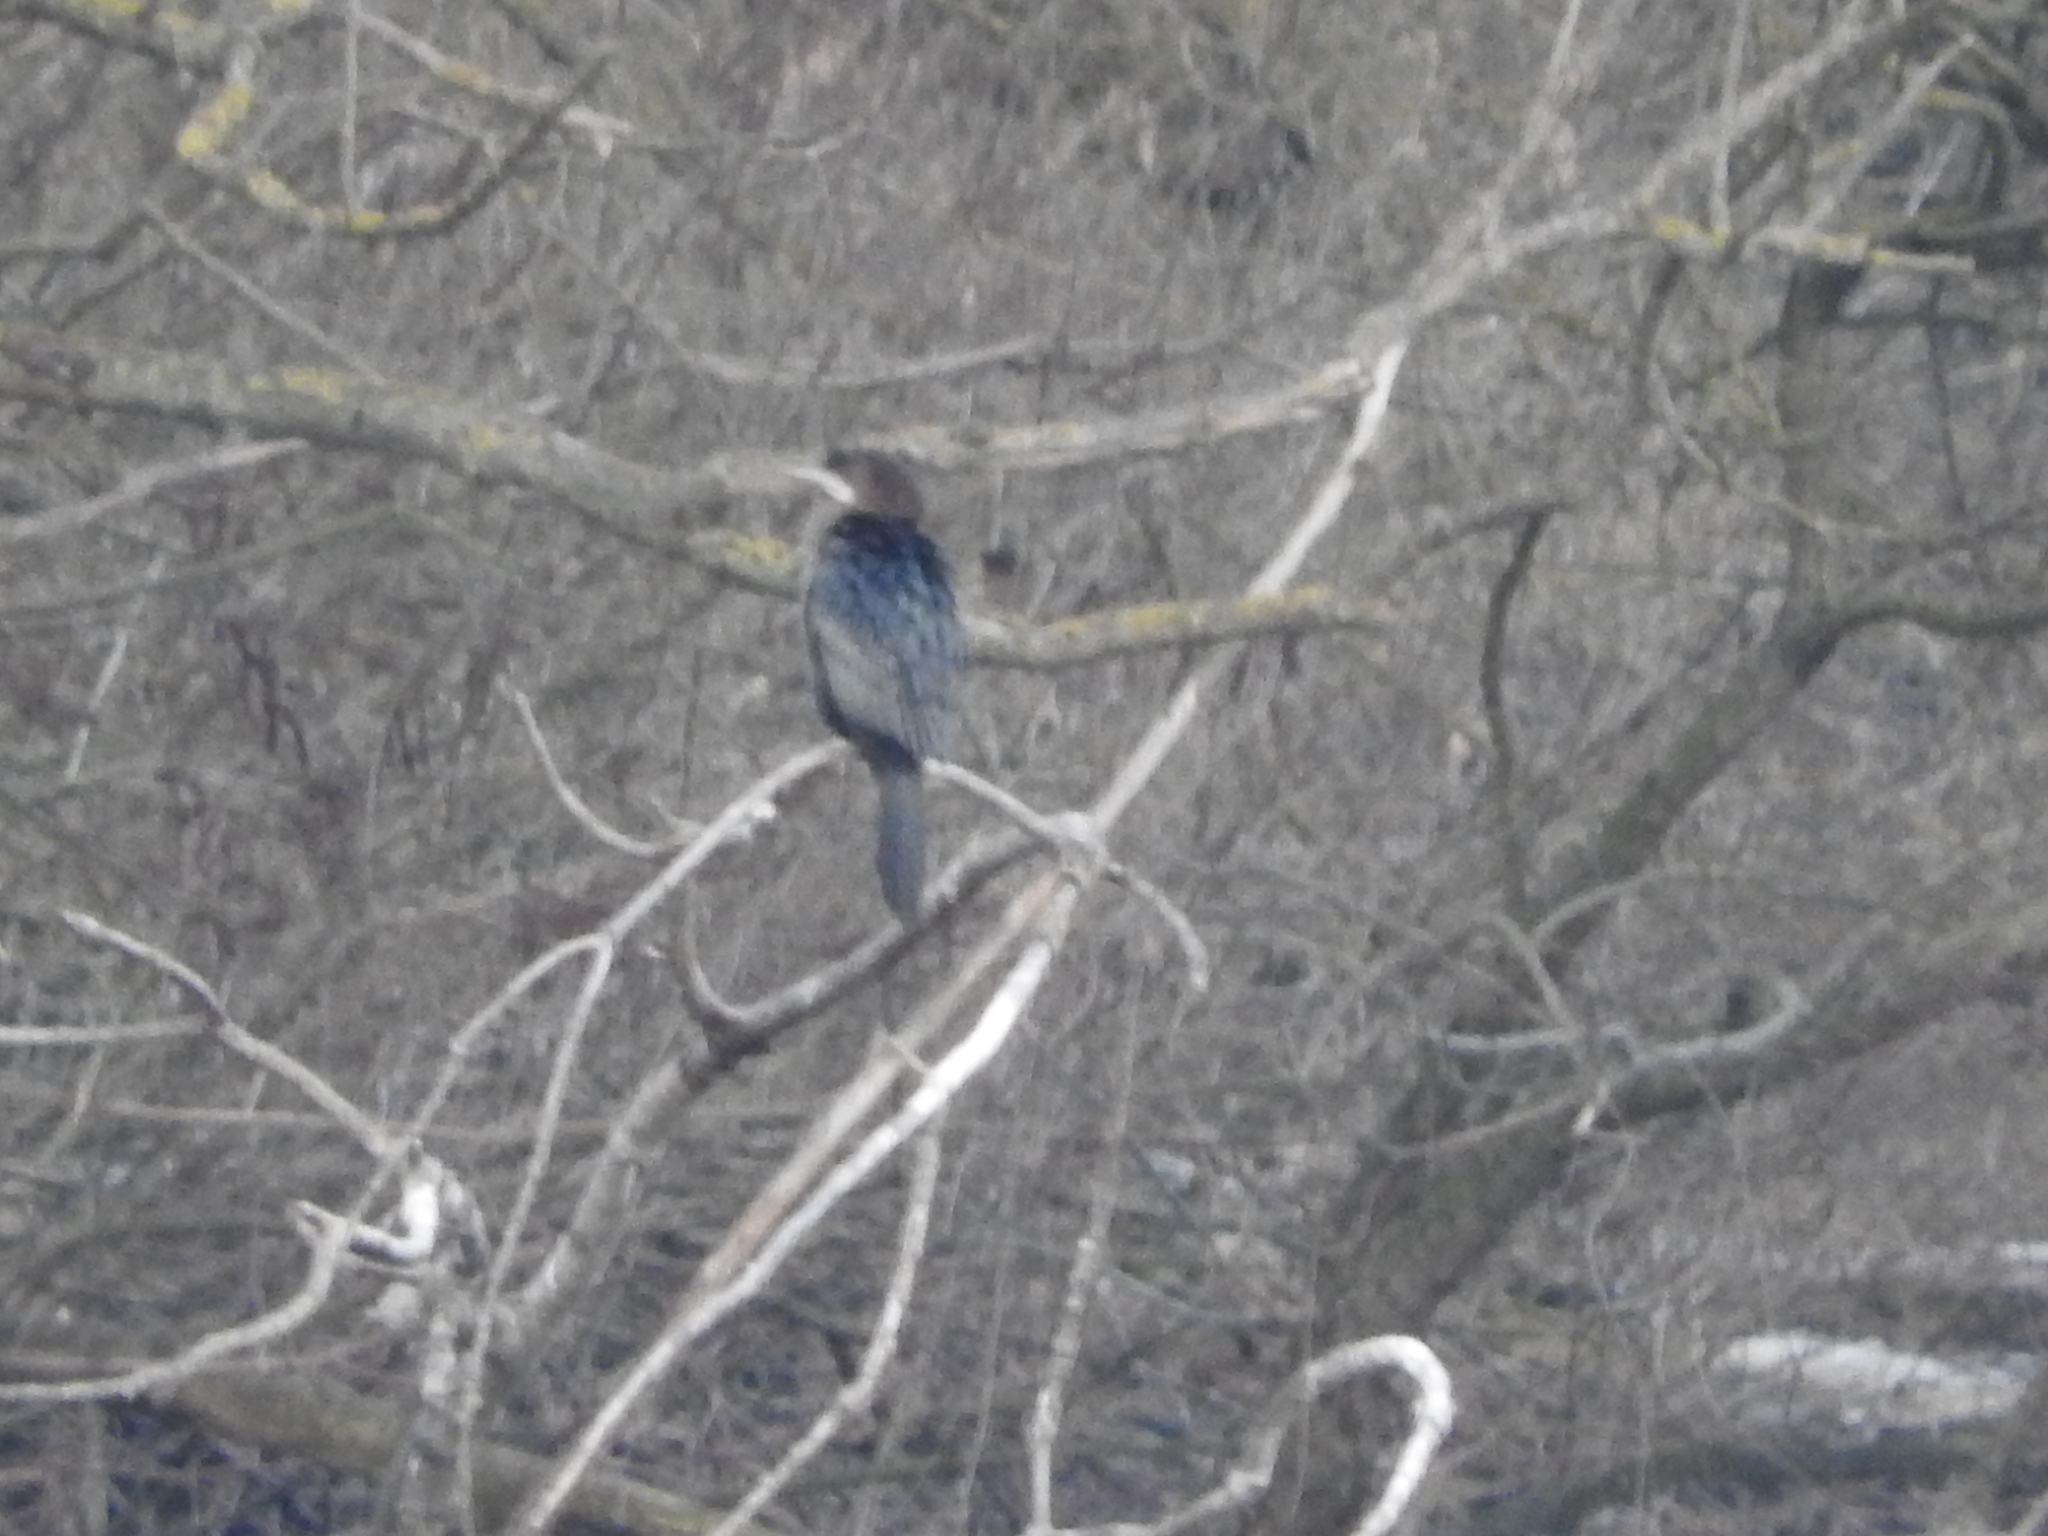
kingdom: Animalia
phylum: Chordata
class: Aves
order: Suliformes
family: Phalacrocoracidae
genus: Microcarbo
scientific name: Microcarbo pygmaeus
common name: Pygmy cormorant
